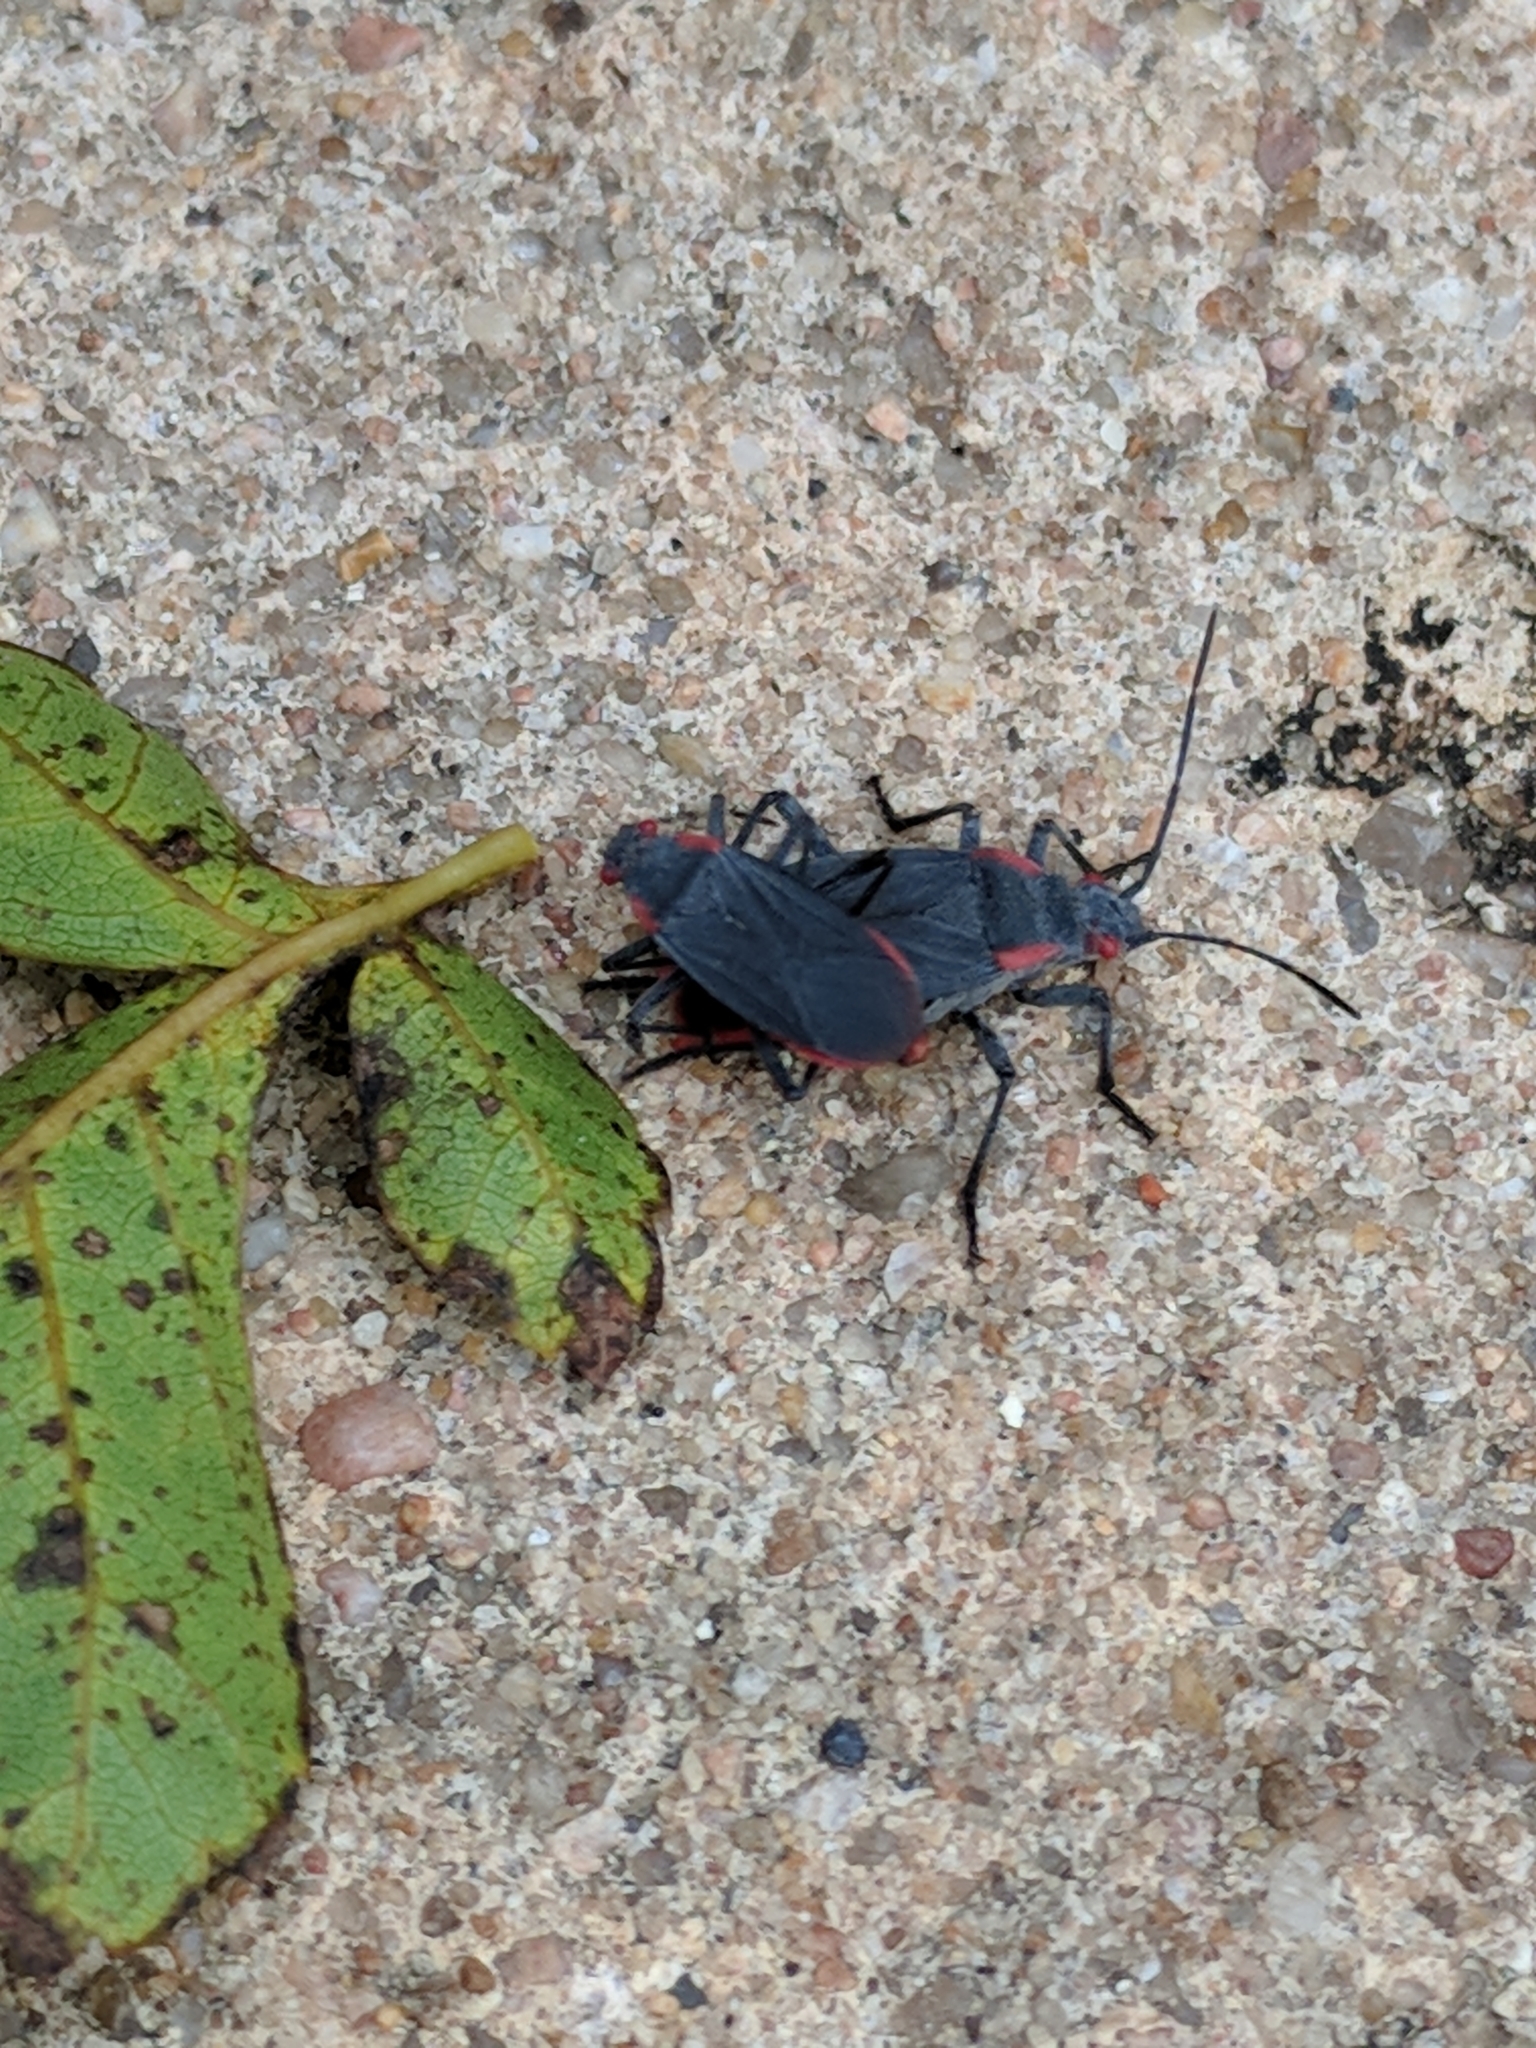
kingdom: Animalia
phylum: Arthropoda
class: Insecta
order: Hemiptera
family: Rhopalidae
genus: Jadera
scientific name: Jadera haematoloma
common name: Red-shouldered bug
